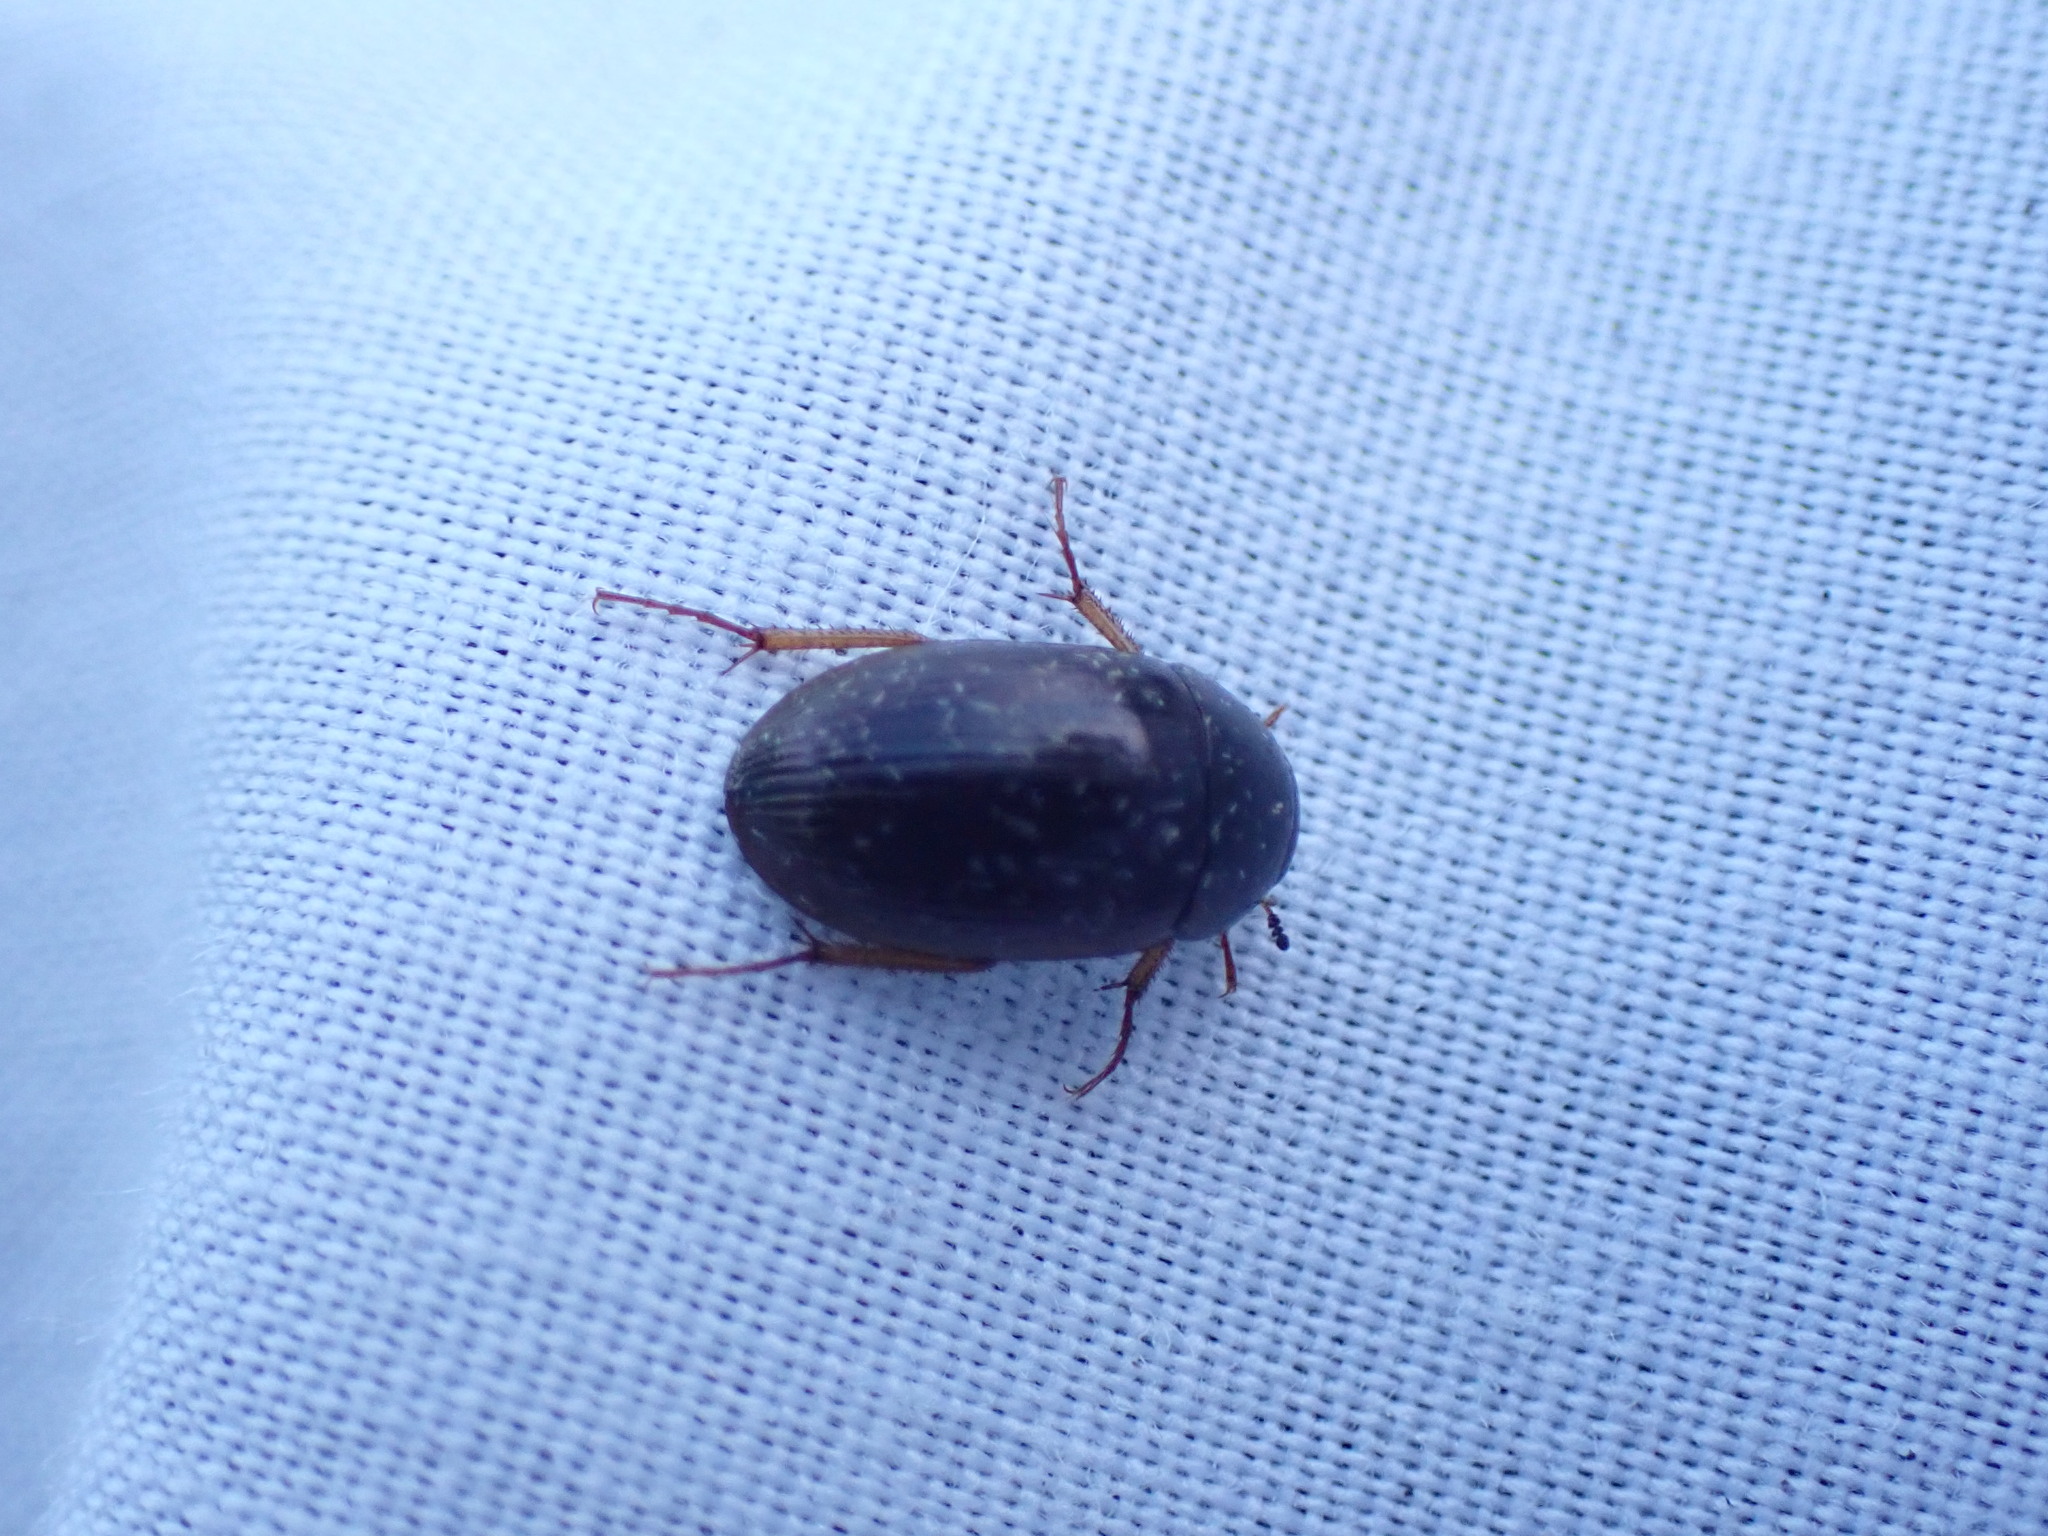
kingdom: Animalia
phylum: Arthropoda
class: Insecta
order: Coleoptera
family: Hydrophilidae
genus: Hydrobius
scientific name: Hydrobius fuscipes
